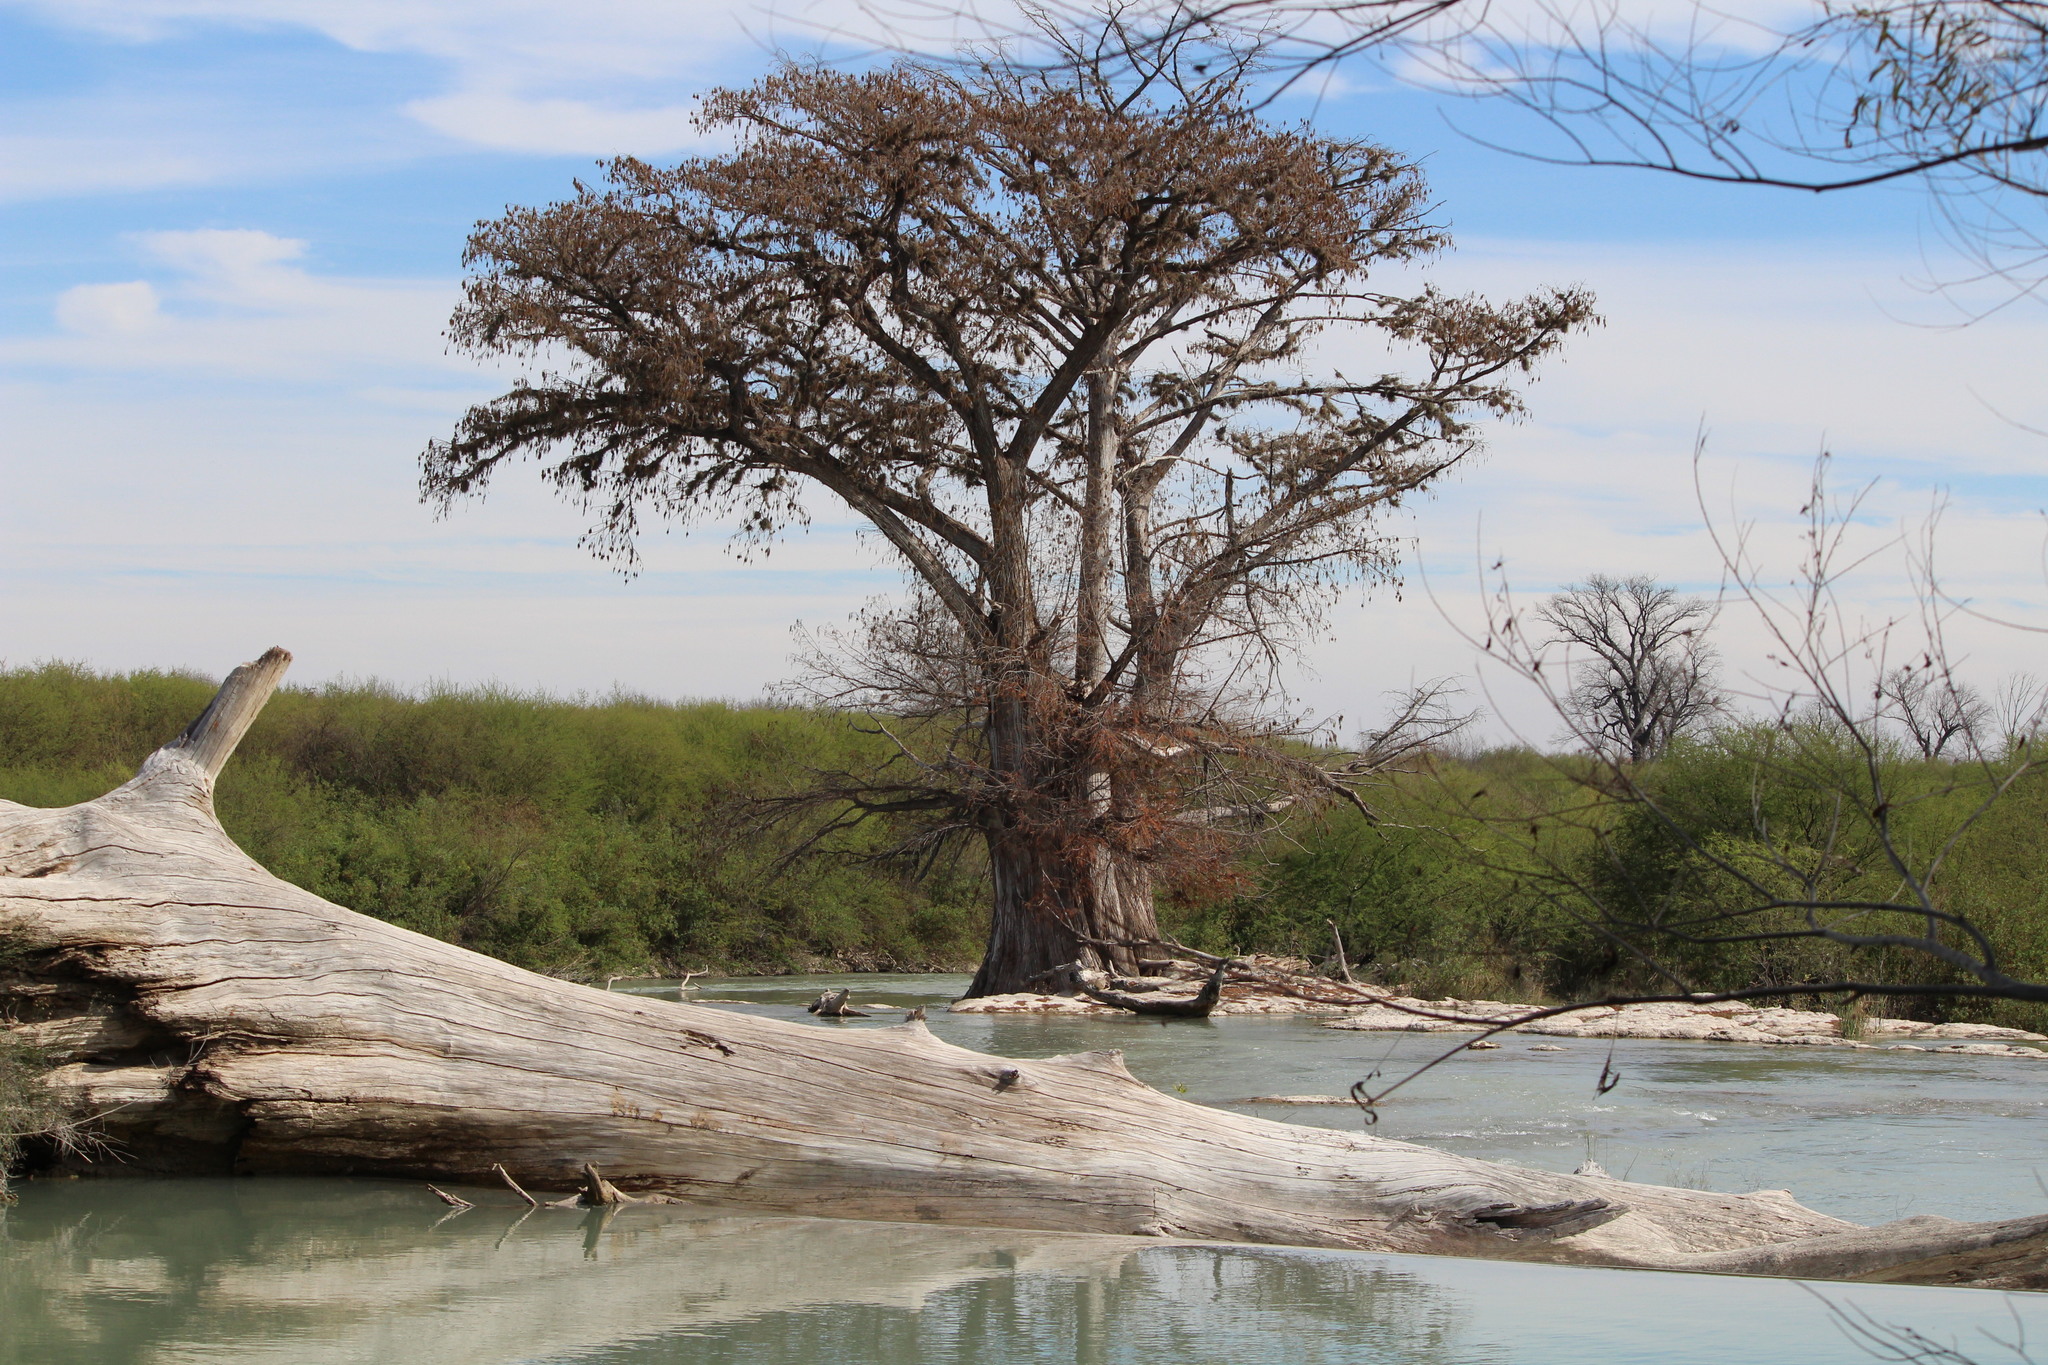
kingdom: Plantae
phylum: Tracheophyta
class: Pinopsida
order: Pinales
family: Cupressaceae
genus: Taxodium
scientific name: Taxodium mucronatum
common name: Montezume bald cypress
